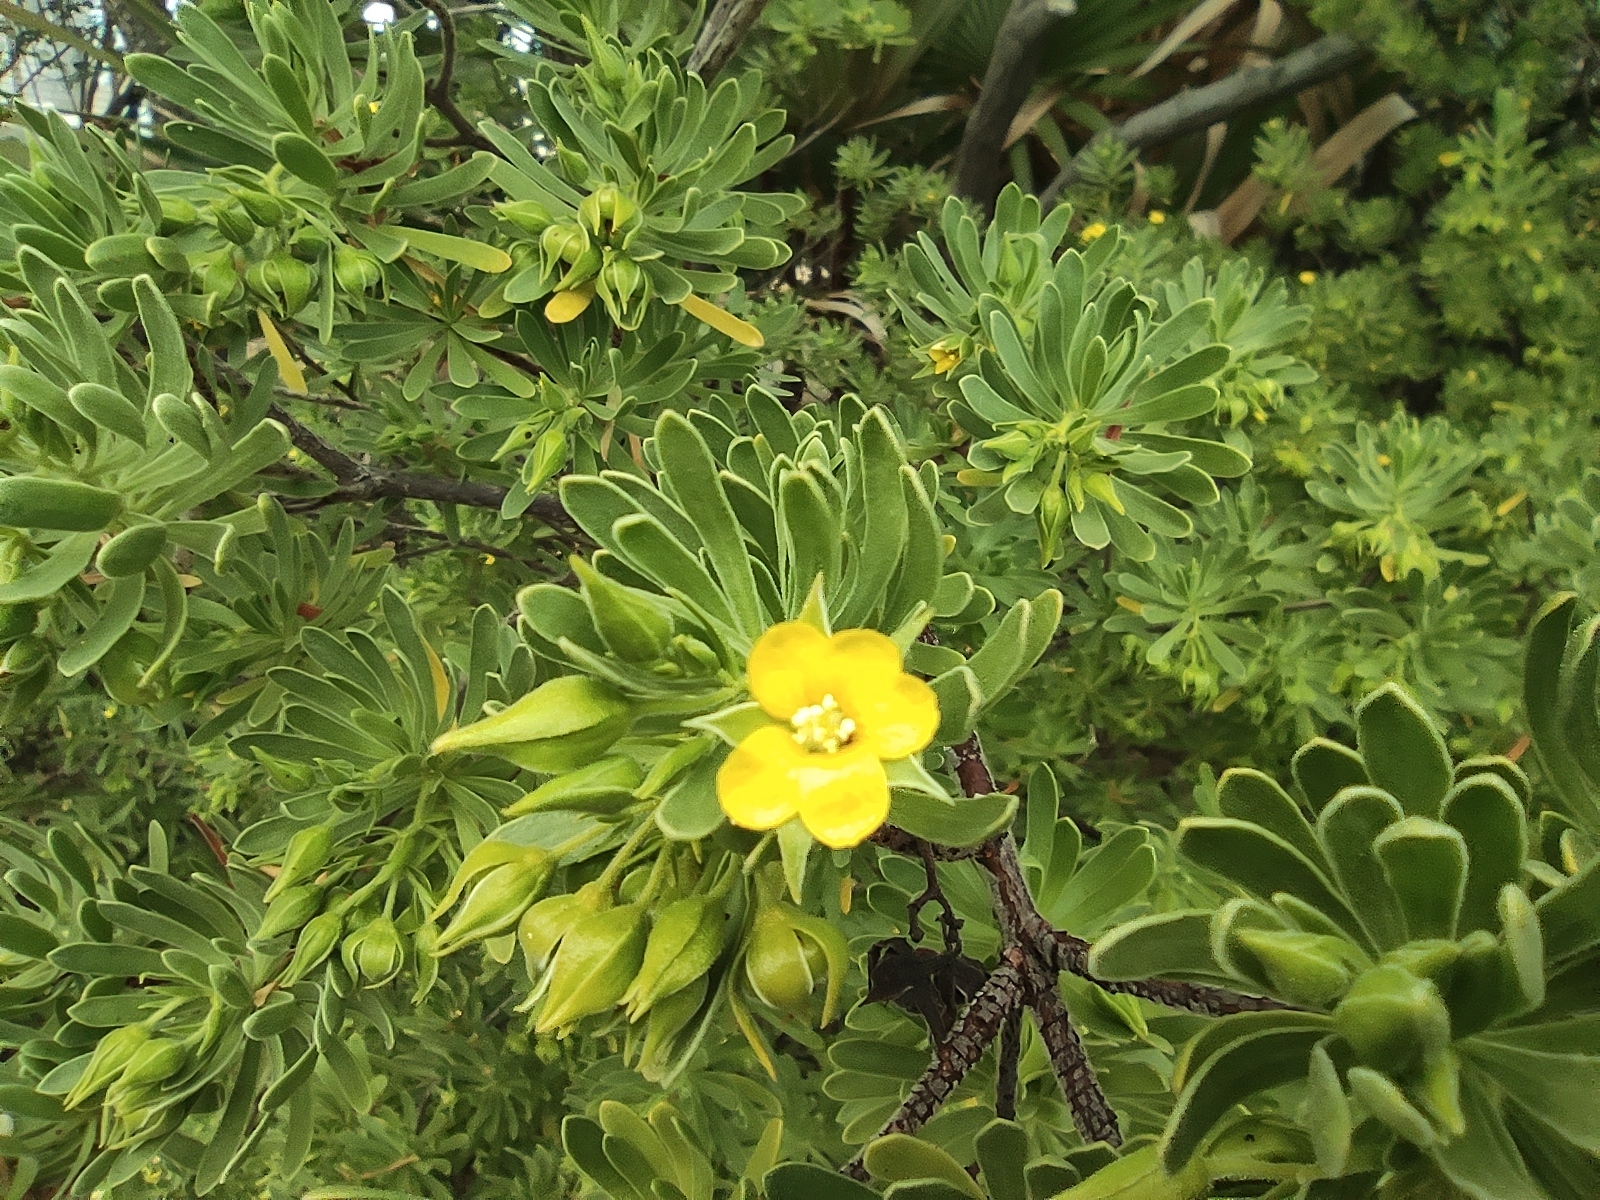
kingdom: Plantae
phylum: Tracheophyta
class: Magnoliopsida
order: Fabales
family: Surianaceae
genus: Suriana
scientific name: Suriana maritima
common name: Bay-cedar
